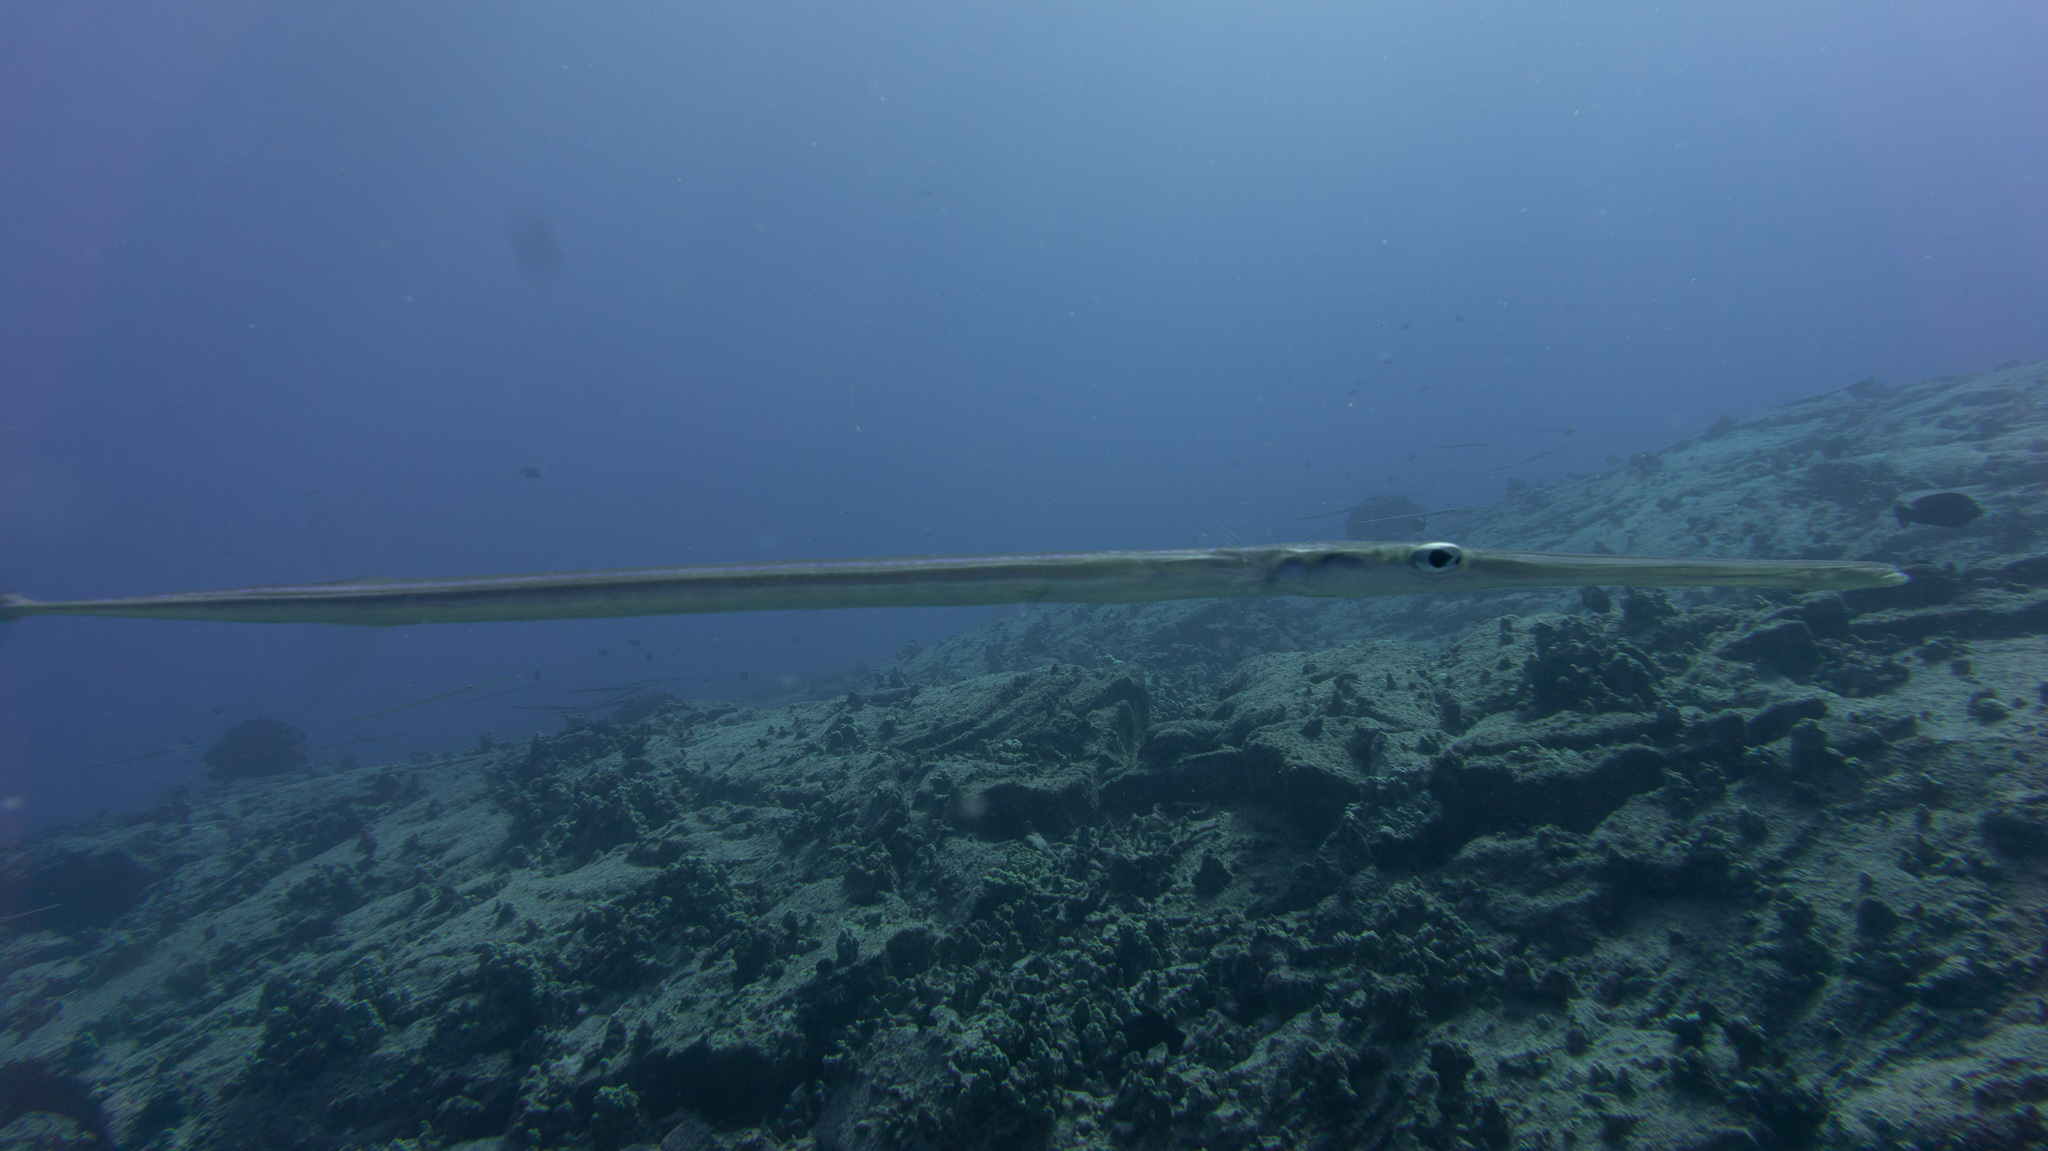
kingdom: Animalia
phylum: Chordata
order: Syngnathiformes
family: Fistulariidae
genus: Fistularia
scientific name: Fistularia commersonii
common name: Bluespotted cornetfish
